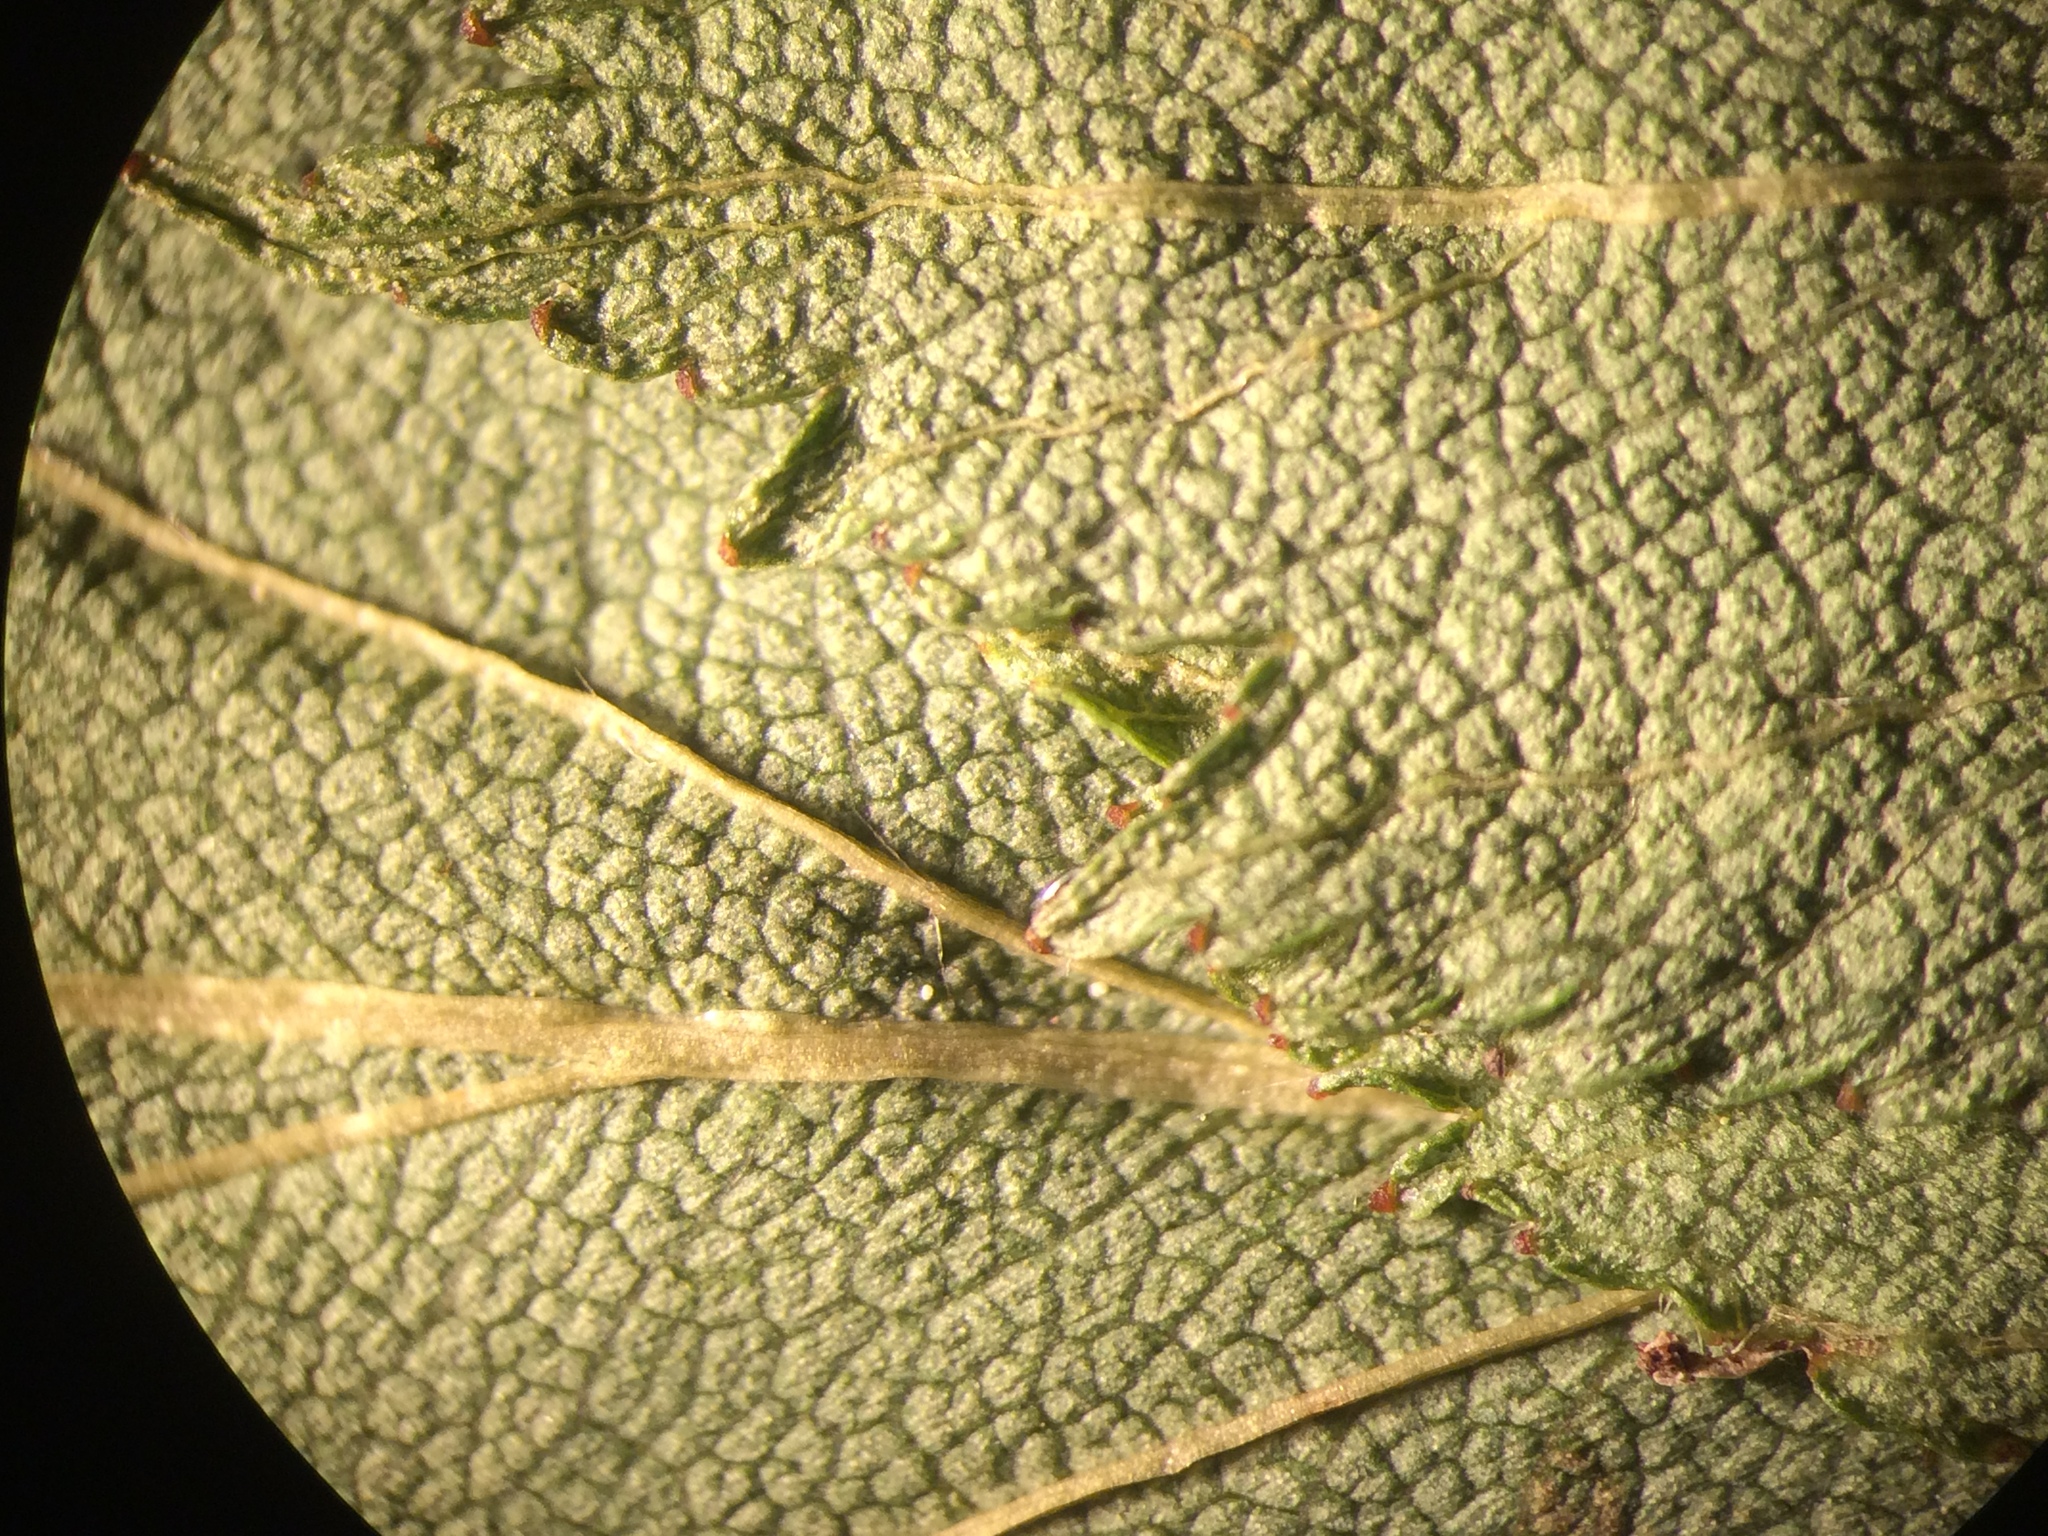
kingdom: Plantae
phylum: Tracheophyta
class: Magnoliopsida
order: Rosales
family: Rosaceae
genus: Crataegus
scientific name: Crataegus flabellata
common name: Bosc's hawthorn
